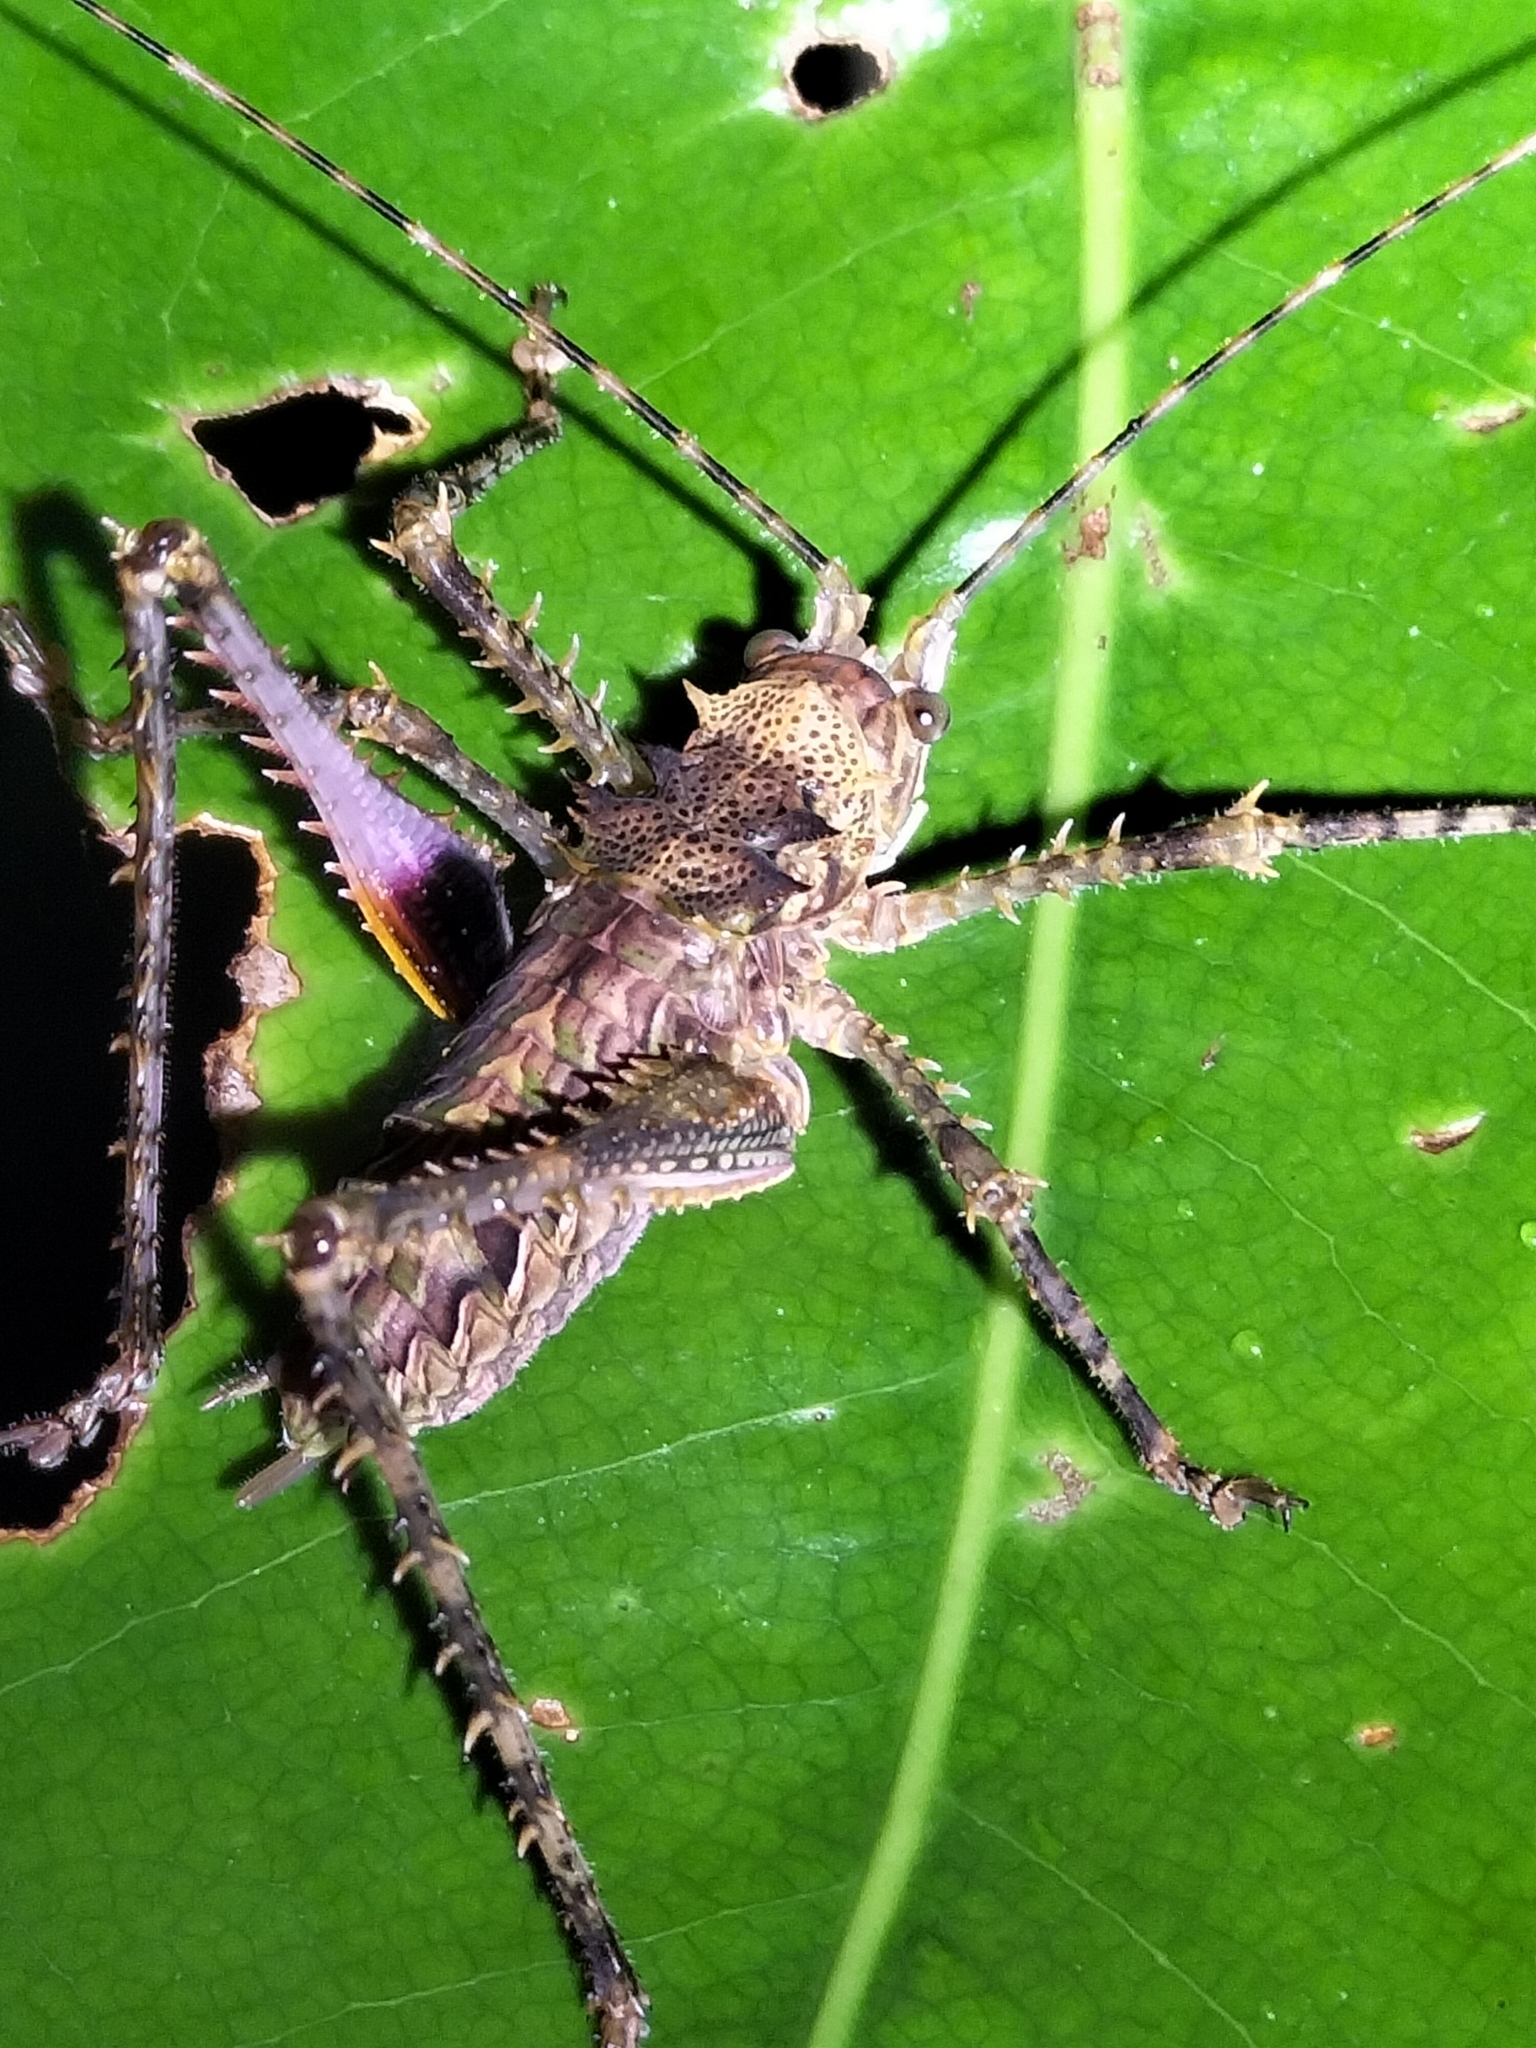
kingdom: Animalia
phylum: Arthropoda
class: Insecta
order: Orthoptera
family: Tettigoniidae
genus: Phricta
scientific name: Phricta spinosa
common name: Giant spiny forest katydid
